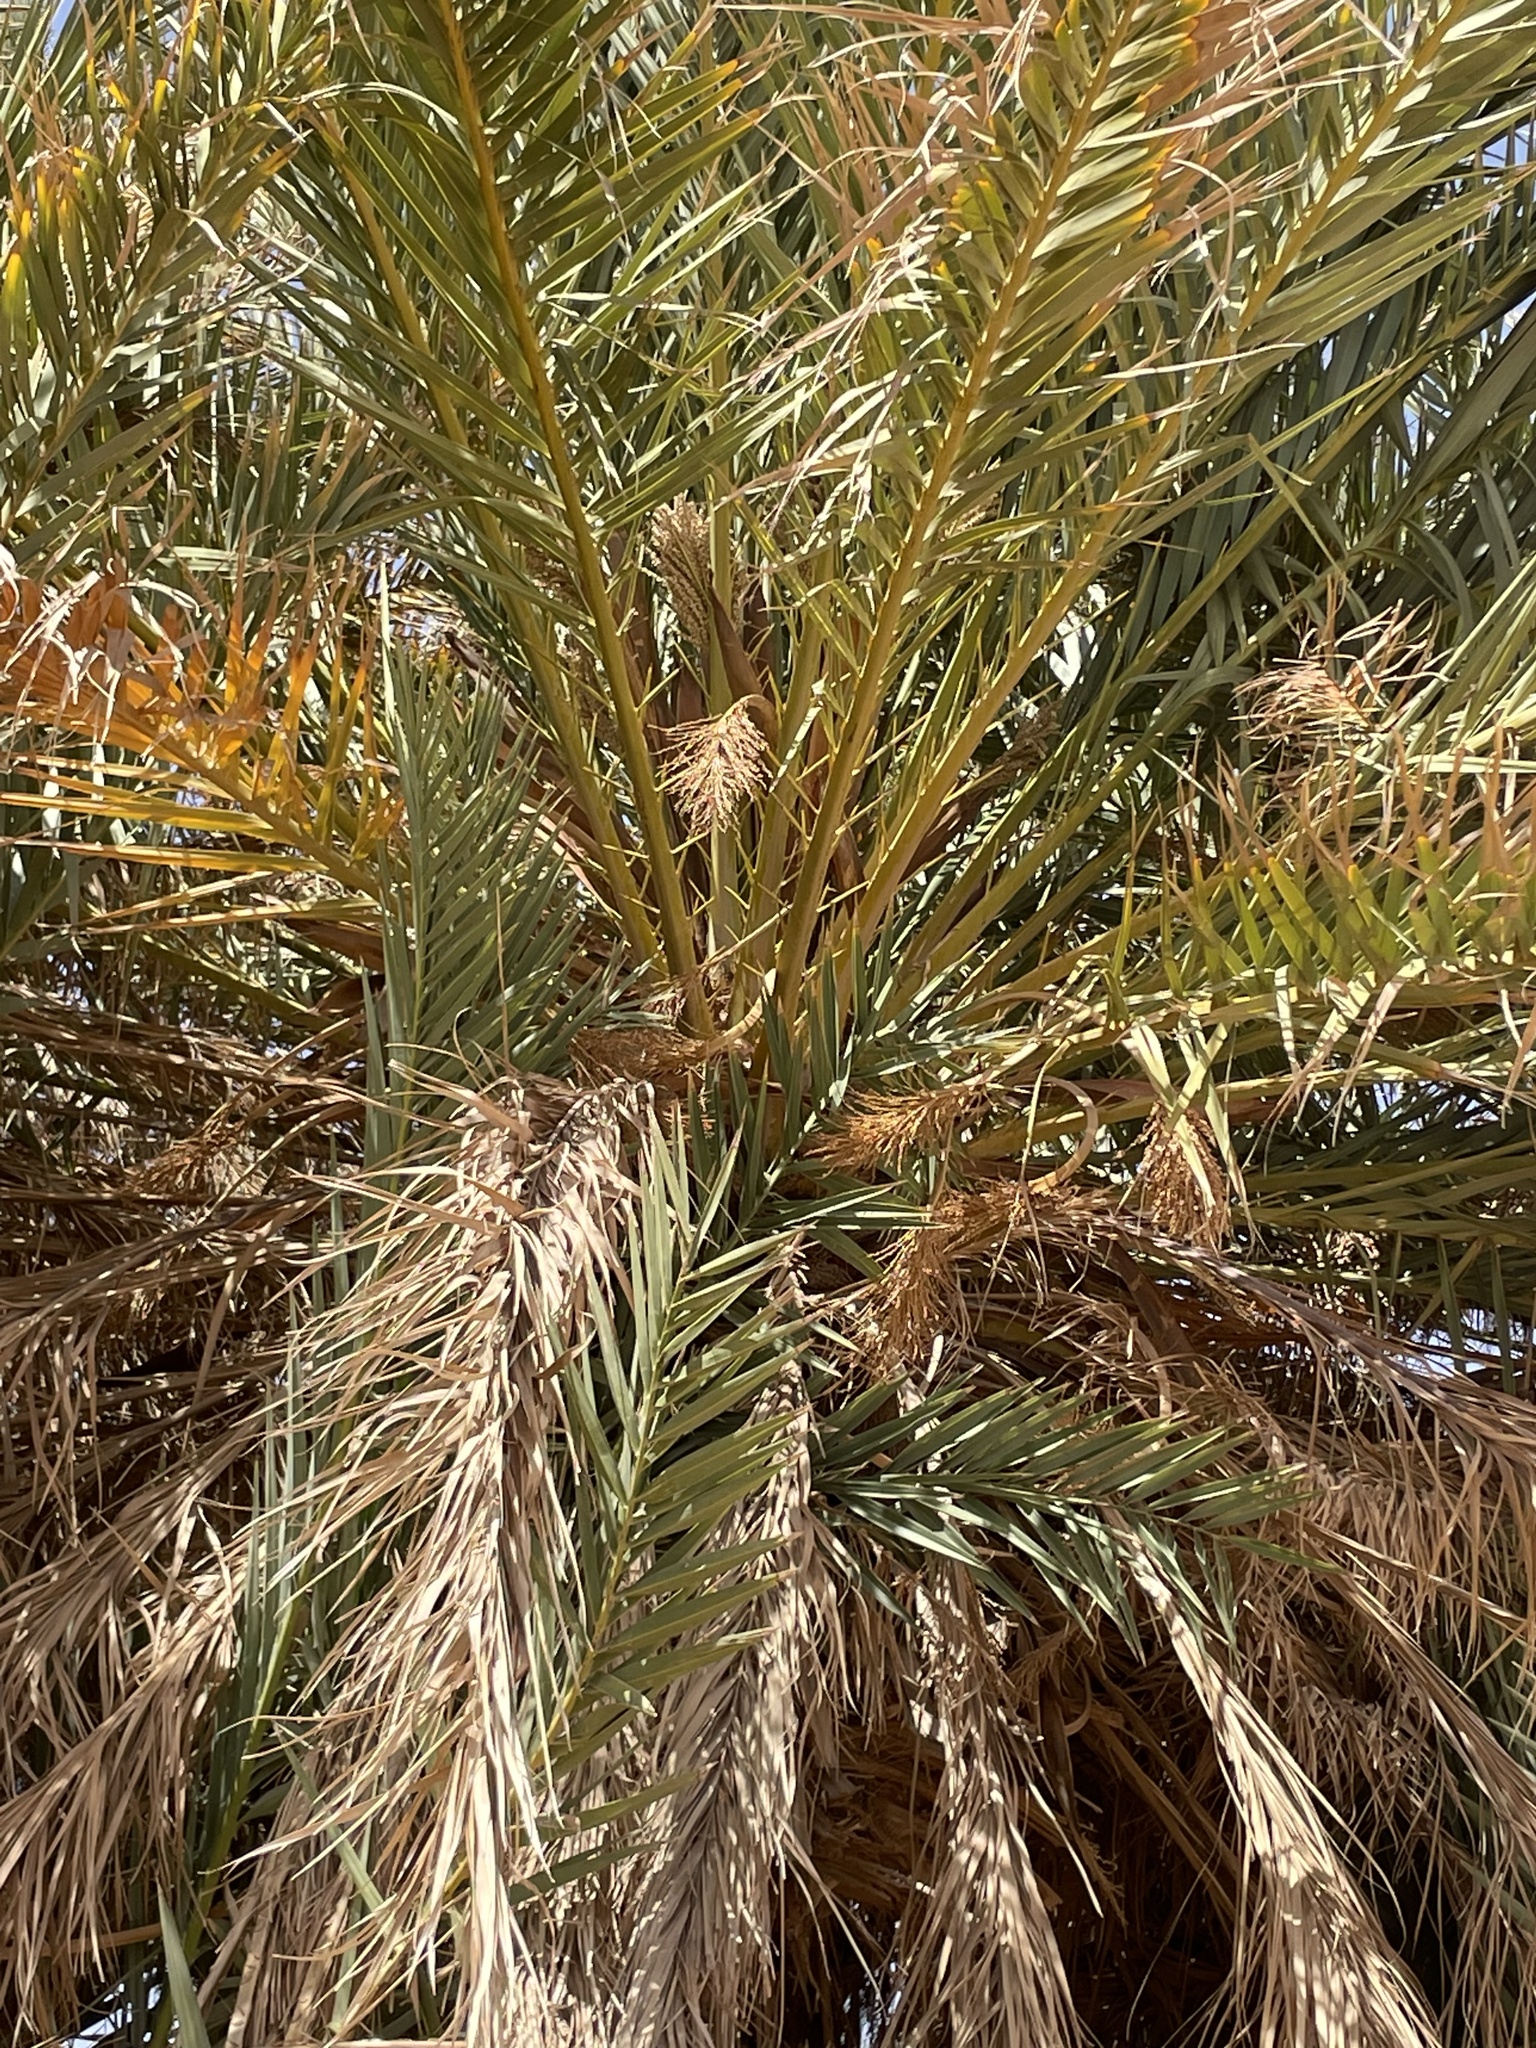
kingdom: Plantae
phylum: Tracheophyta
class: Liliopsida
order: Arecales
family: Arecaceae
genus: Phoenix
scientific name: Phoenix dactylifera
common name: Date palm
